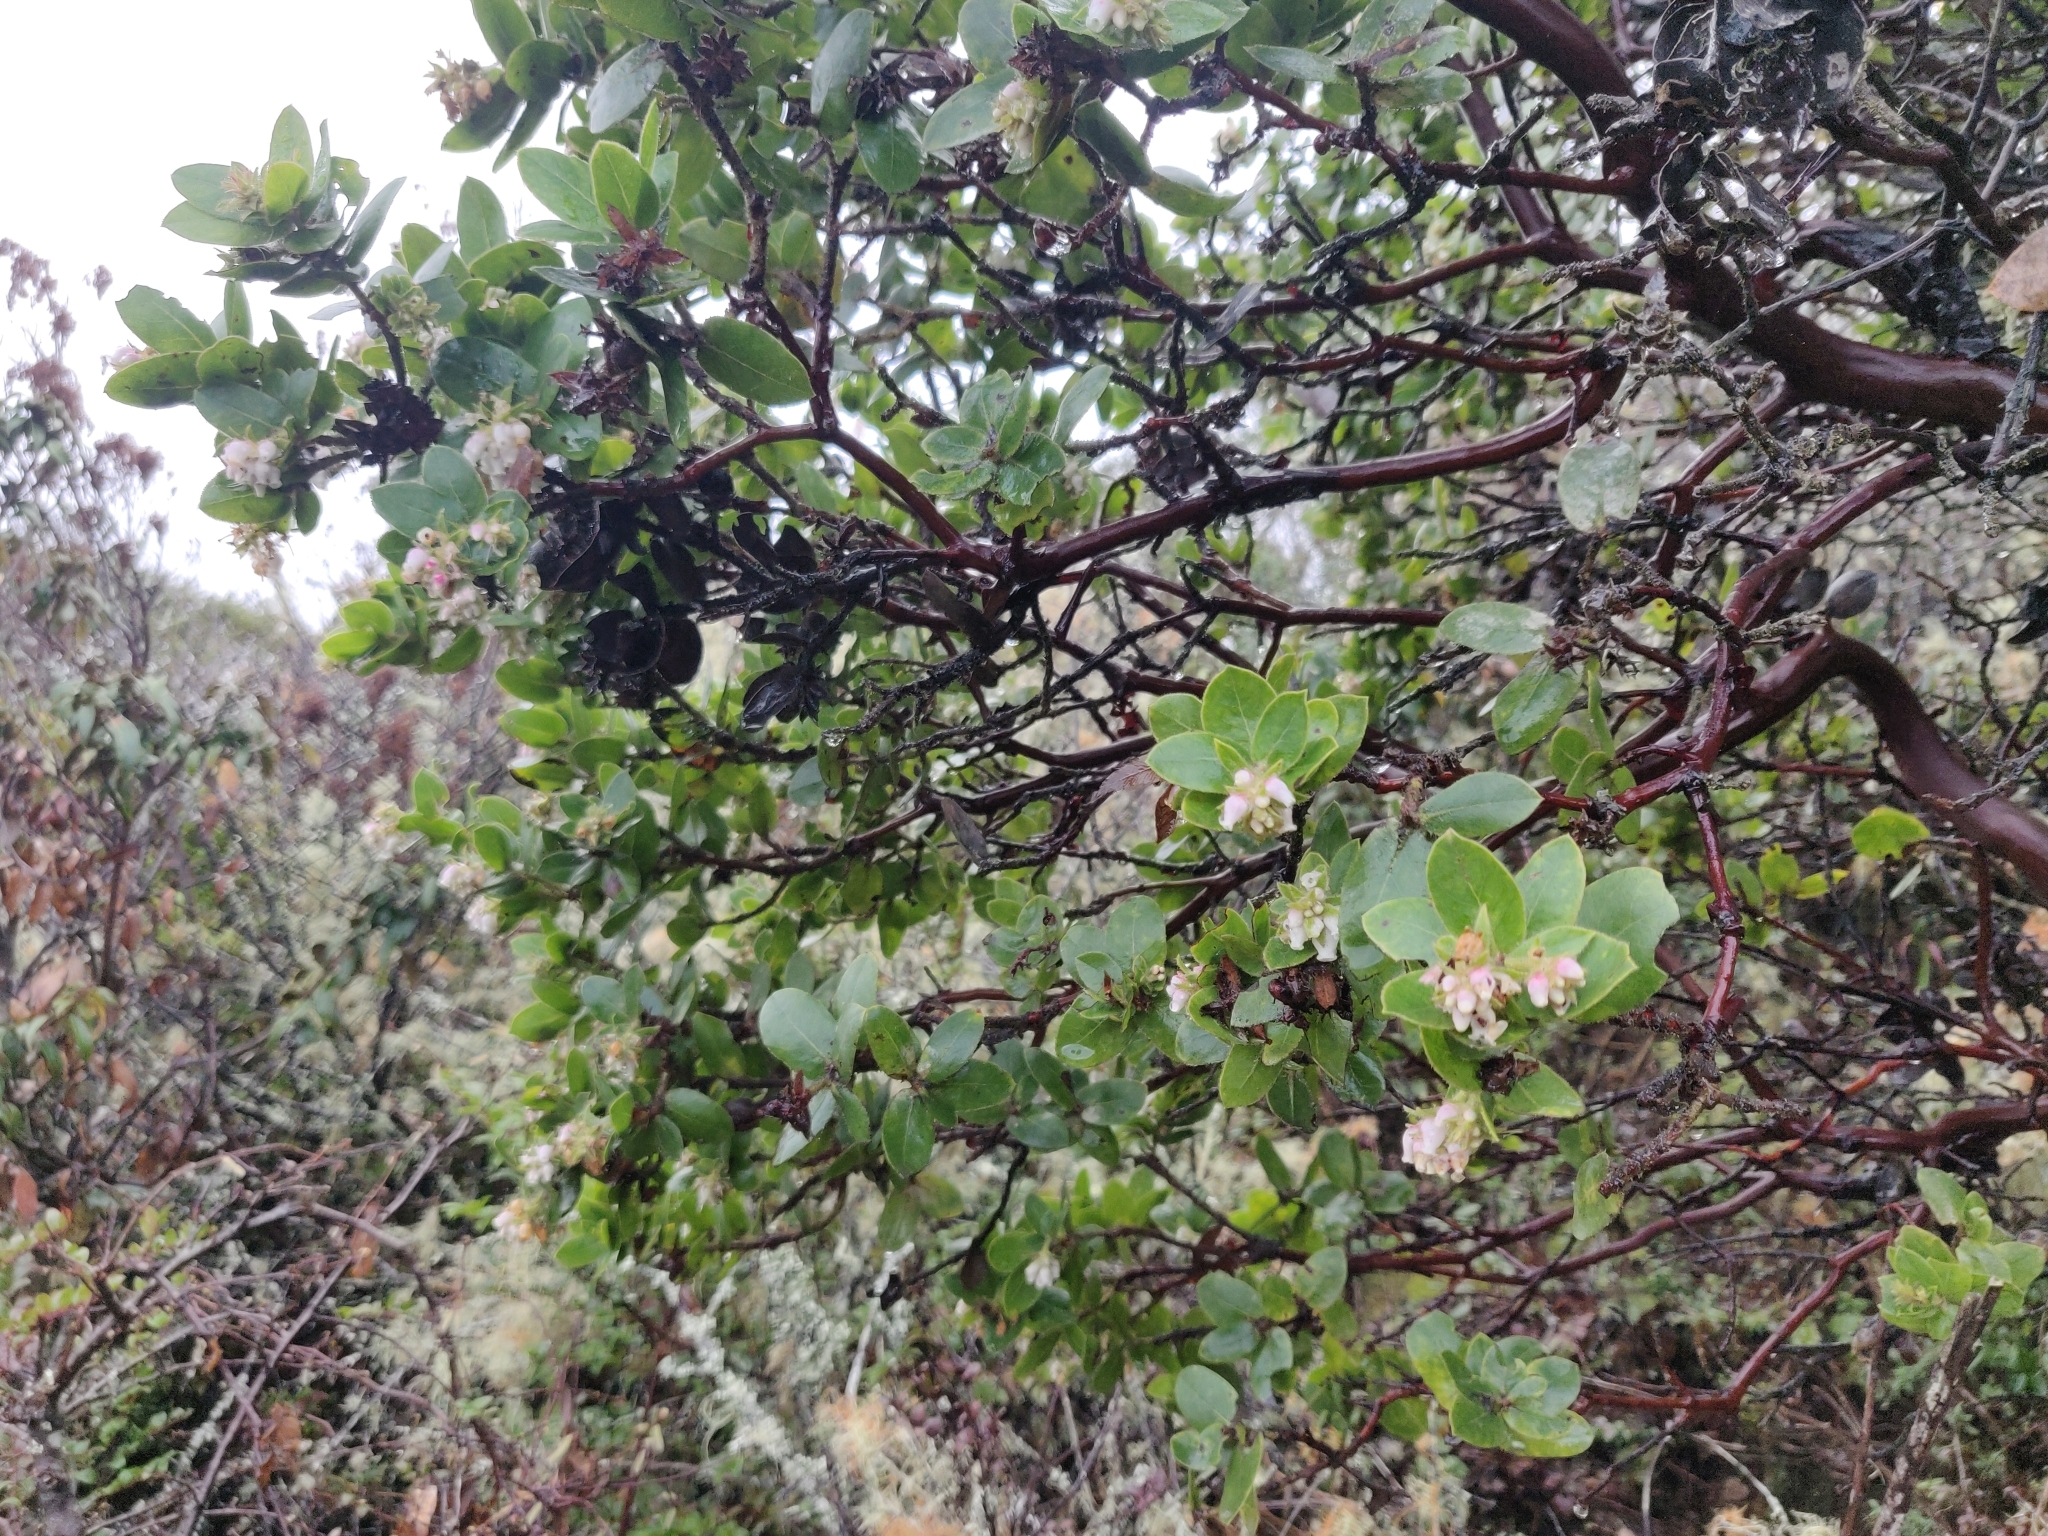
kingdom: Plantae
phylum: Tracheophyta
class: Magnoliopsida
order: Ericales
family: Ericaceae
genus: Arctostaphylos
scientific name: Arctostaphylos montaraensis
